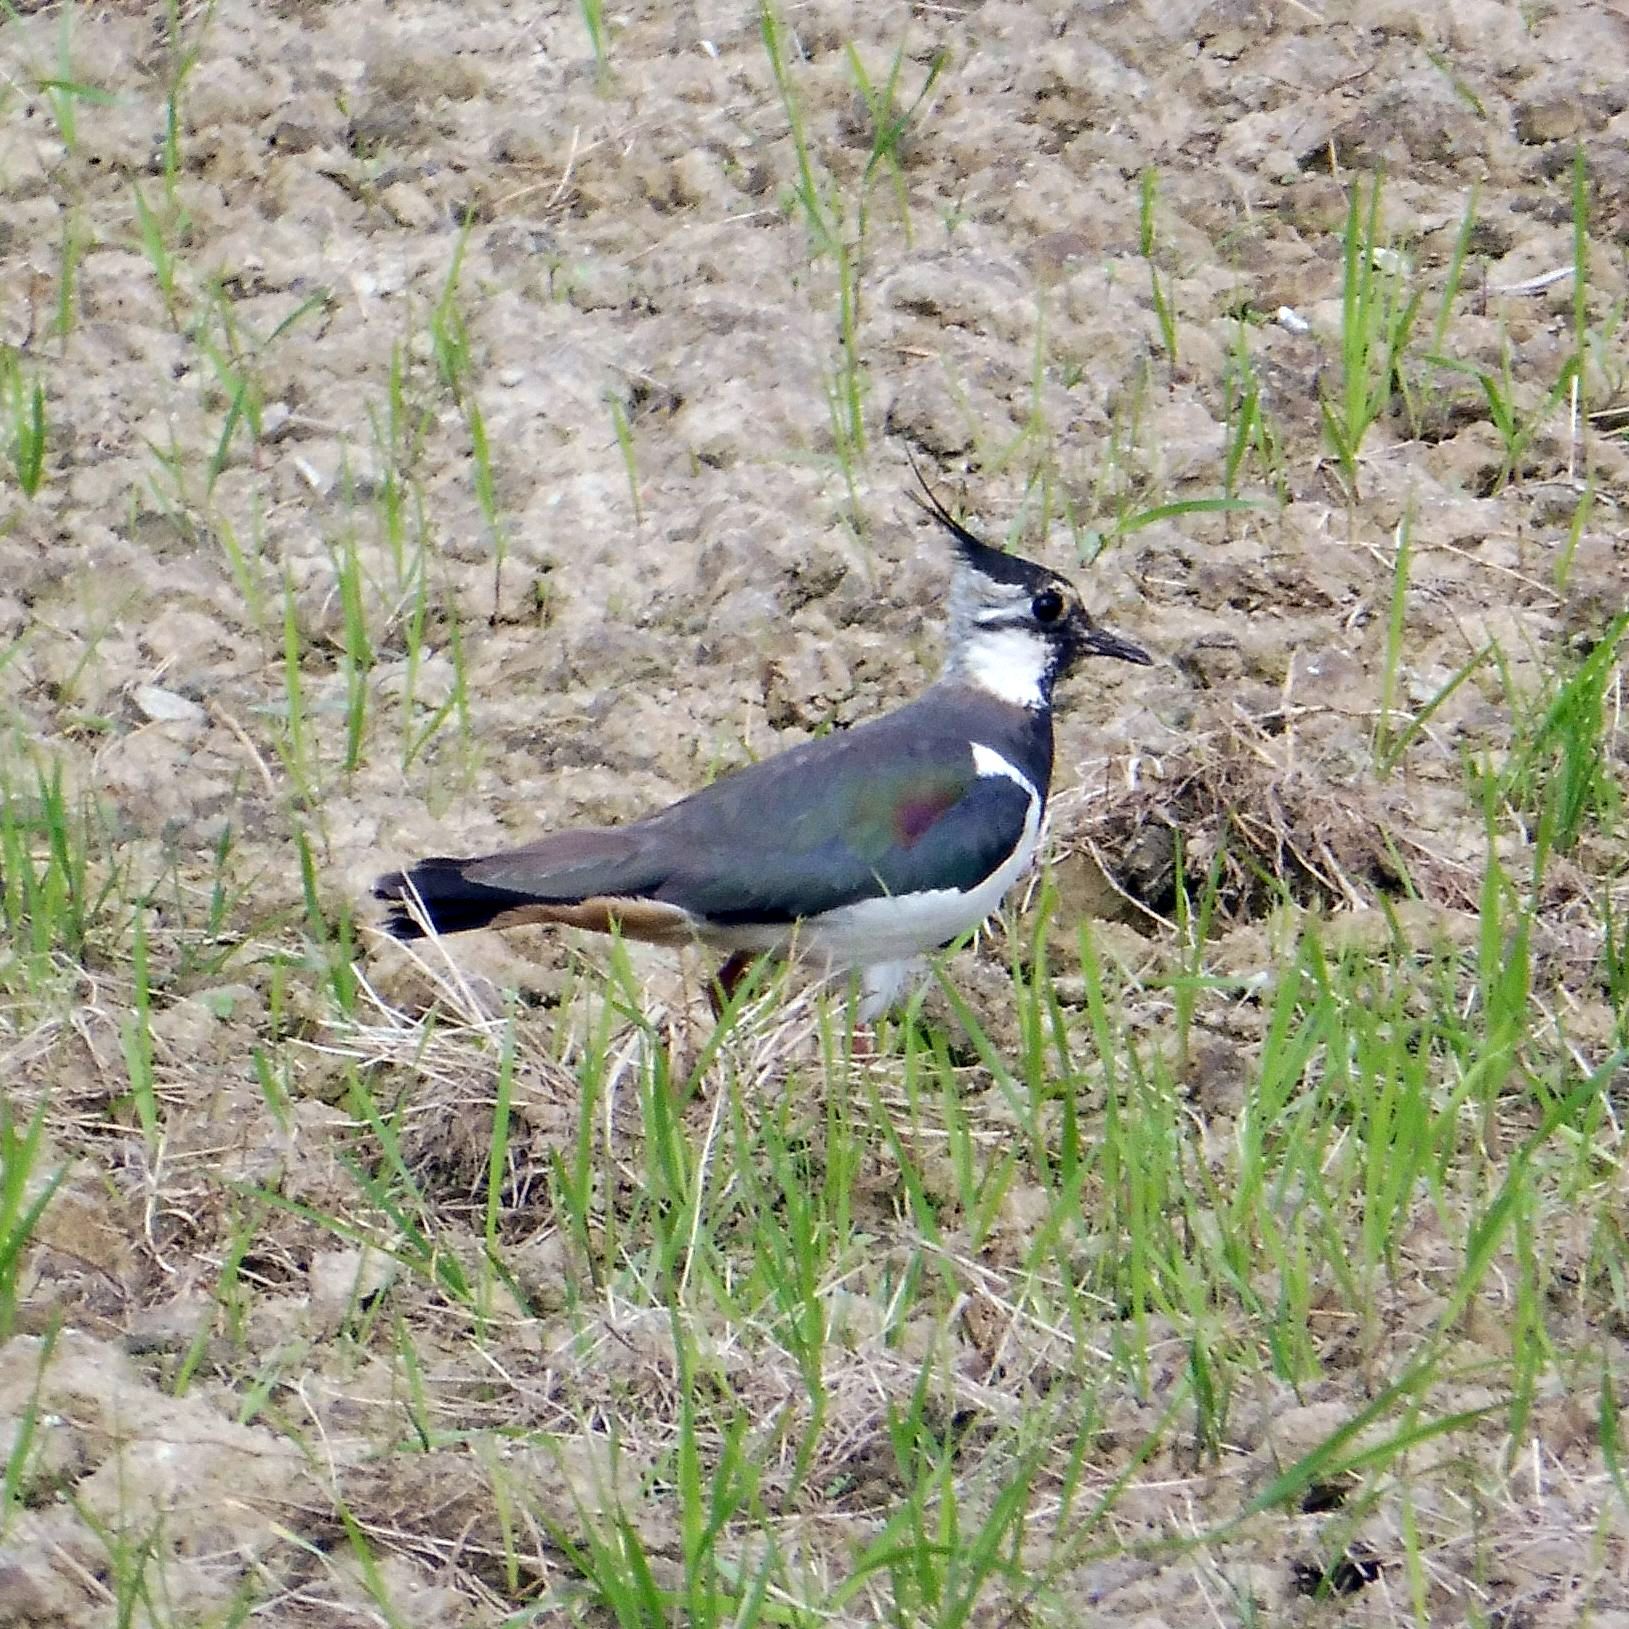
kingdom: Animalia
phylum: Chordata
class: Aves
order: Charadriiformes
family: Charadriidae
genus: Vanellus
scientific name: Vanellus vanellus
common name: Northern lapwing
